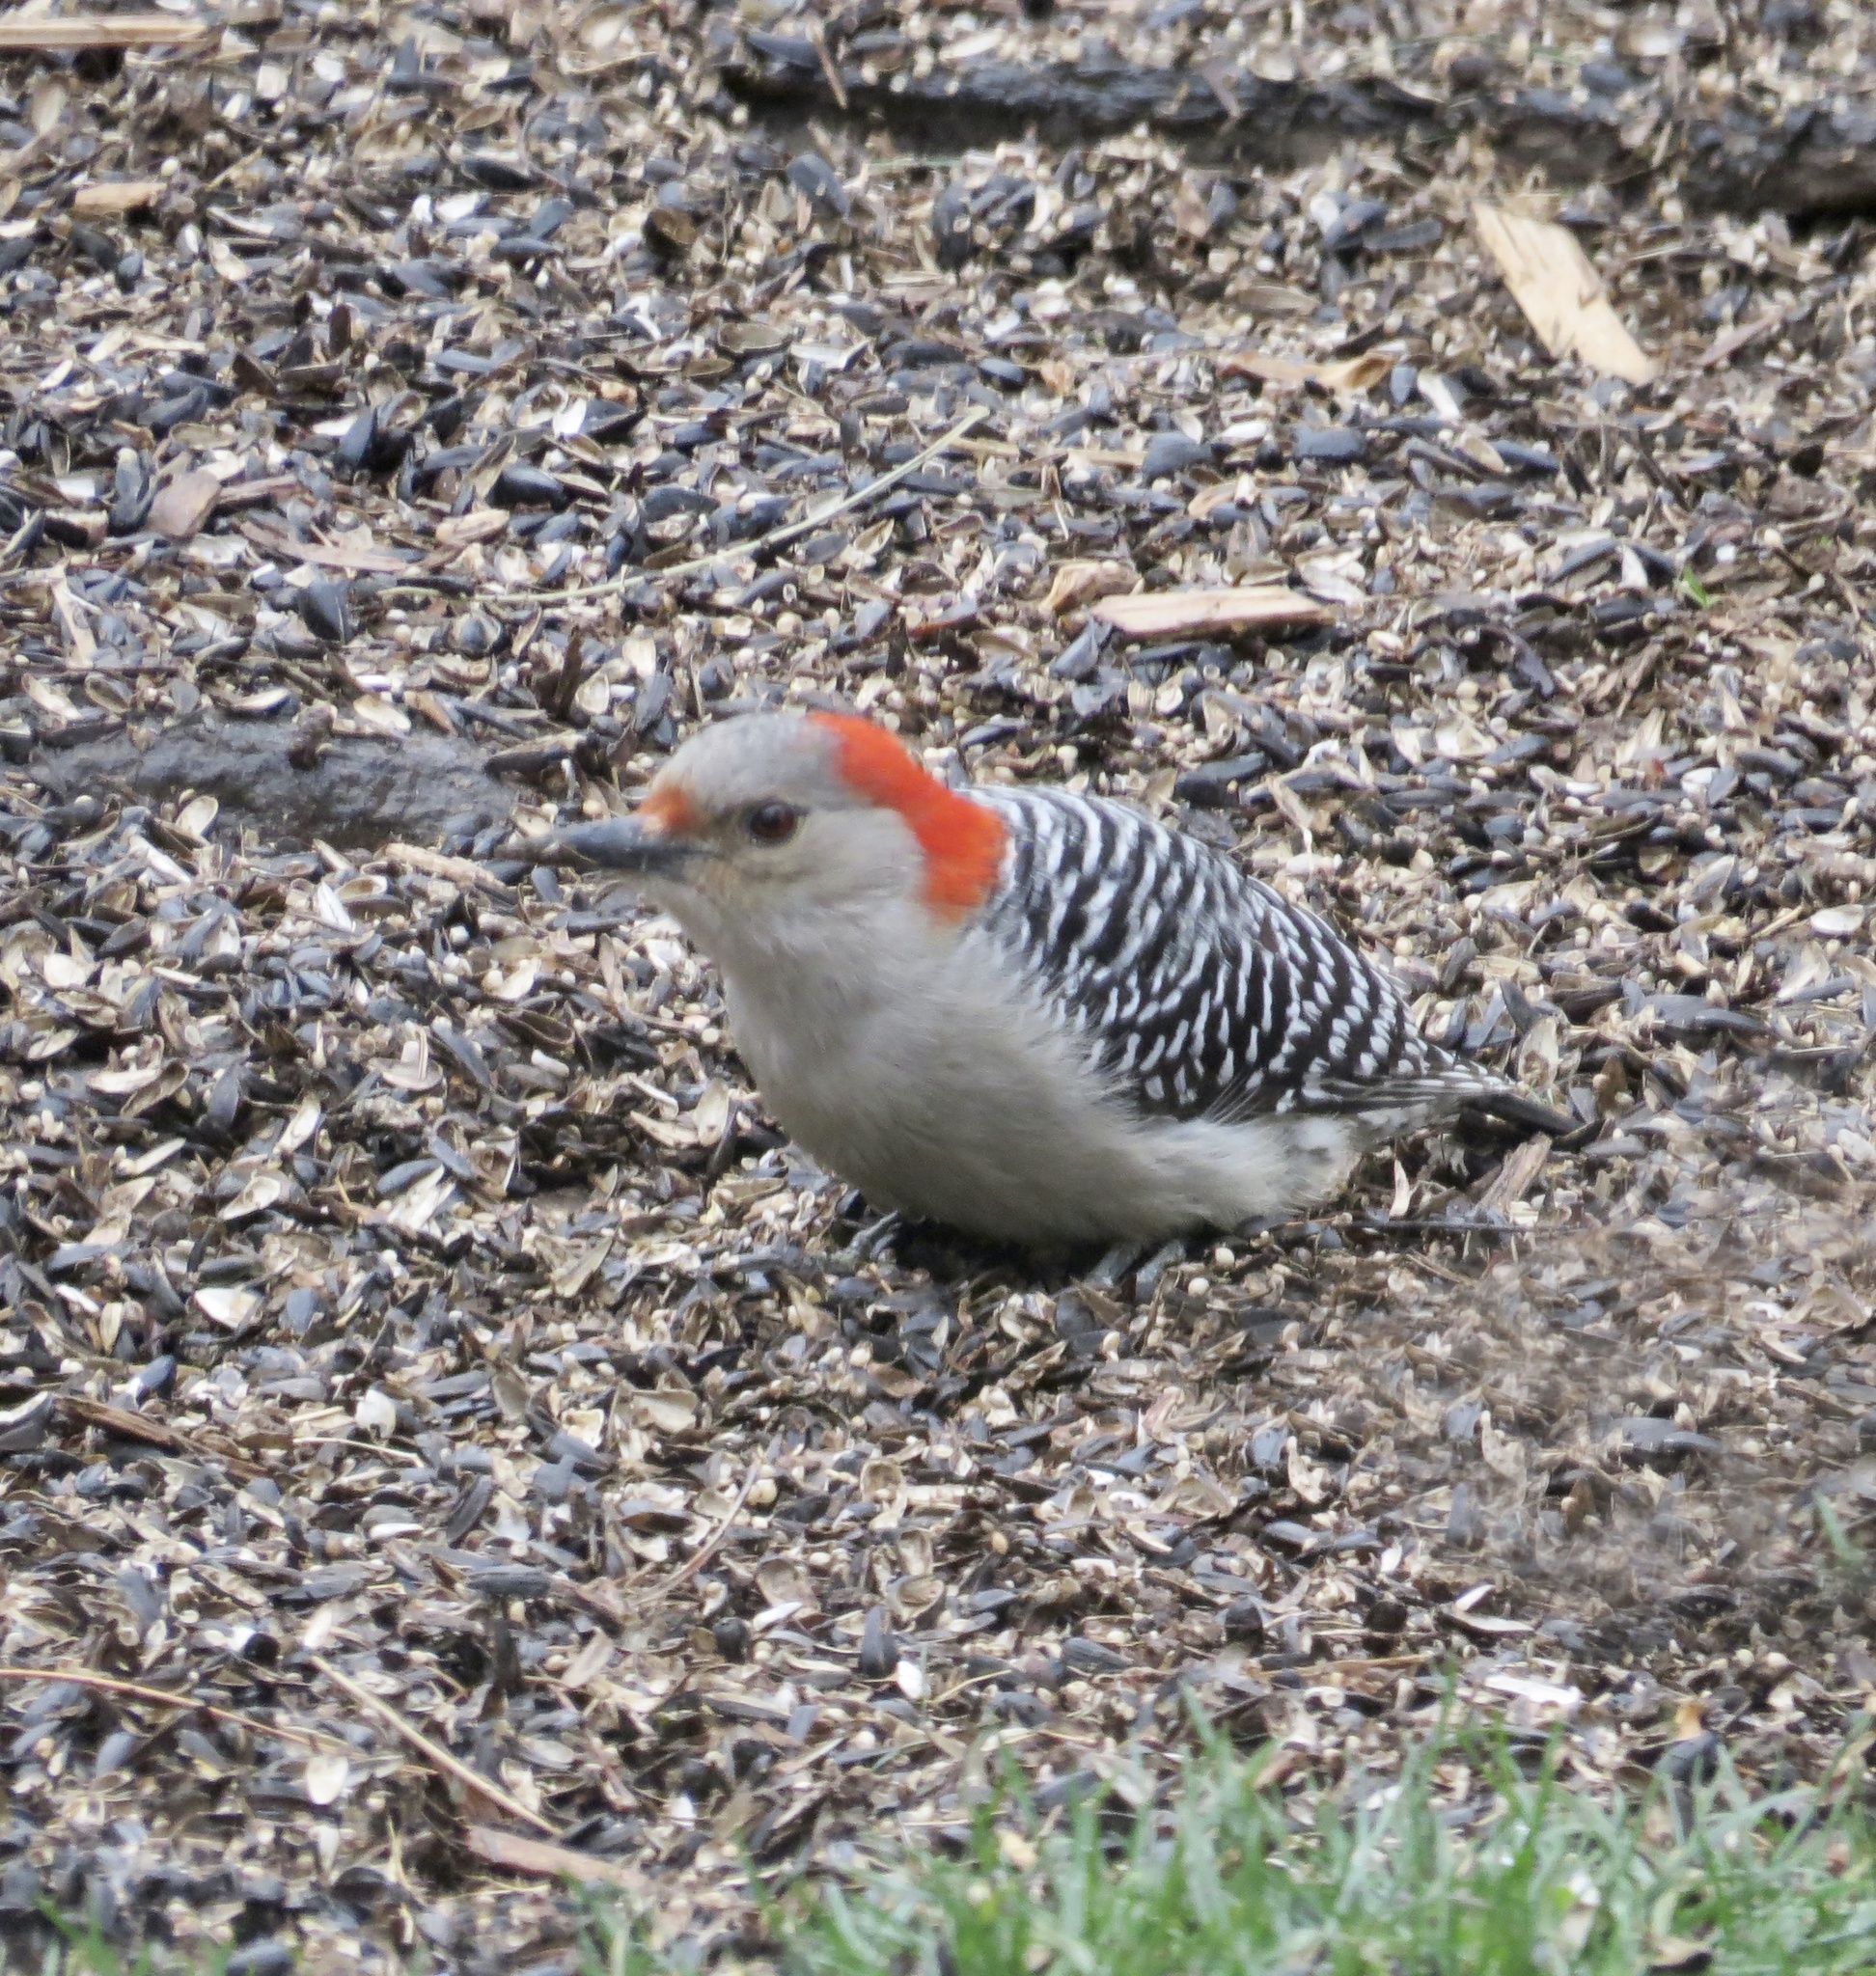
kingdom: Animalia
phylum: Chordata
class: Aves
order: Piciformes
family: Picidae
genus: Melanerpes
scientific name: Melanerpes carolinus
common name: Red-bellied woodpecker
